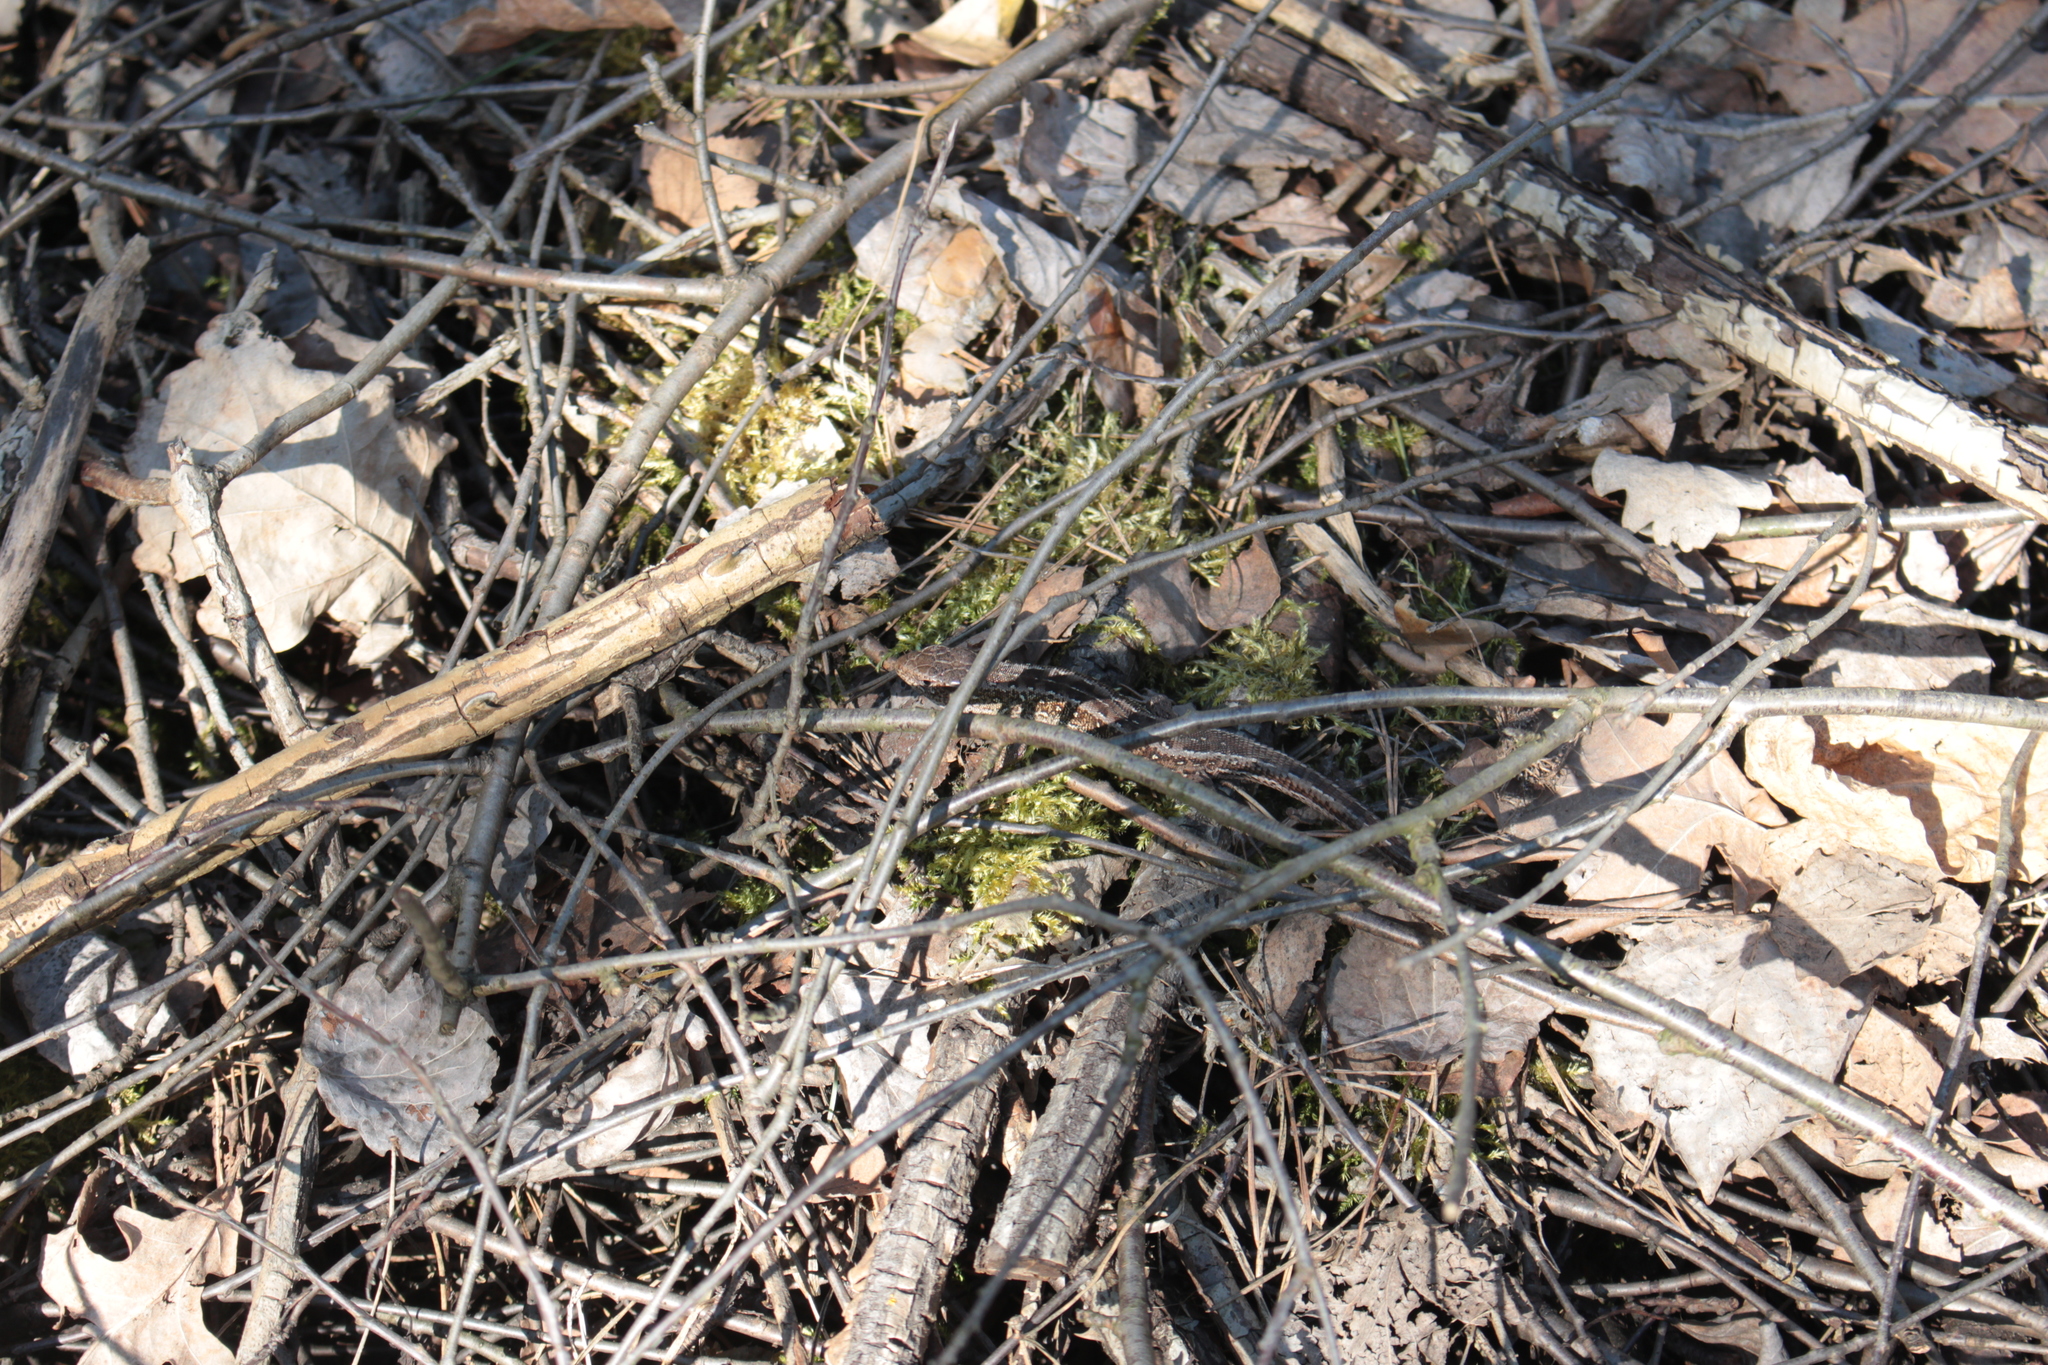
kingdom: Animalia
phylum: Chordata
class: Squamata
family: Lacertidae
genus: Lacerta
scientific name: Lacerta agilis
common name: Sand lizard
